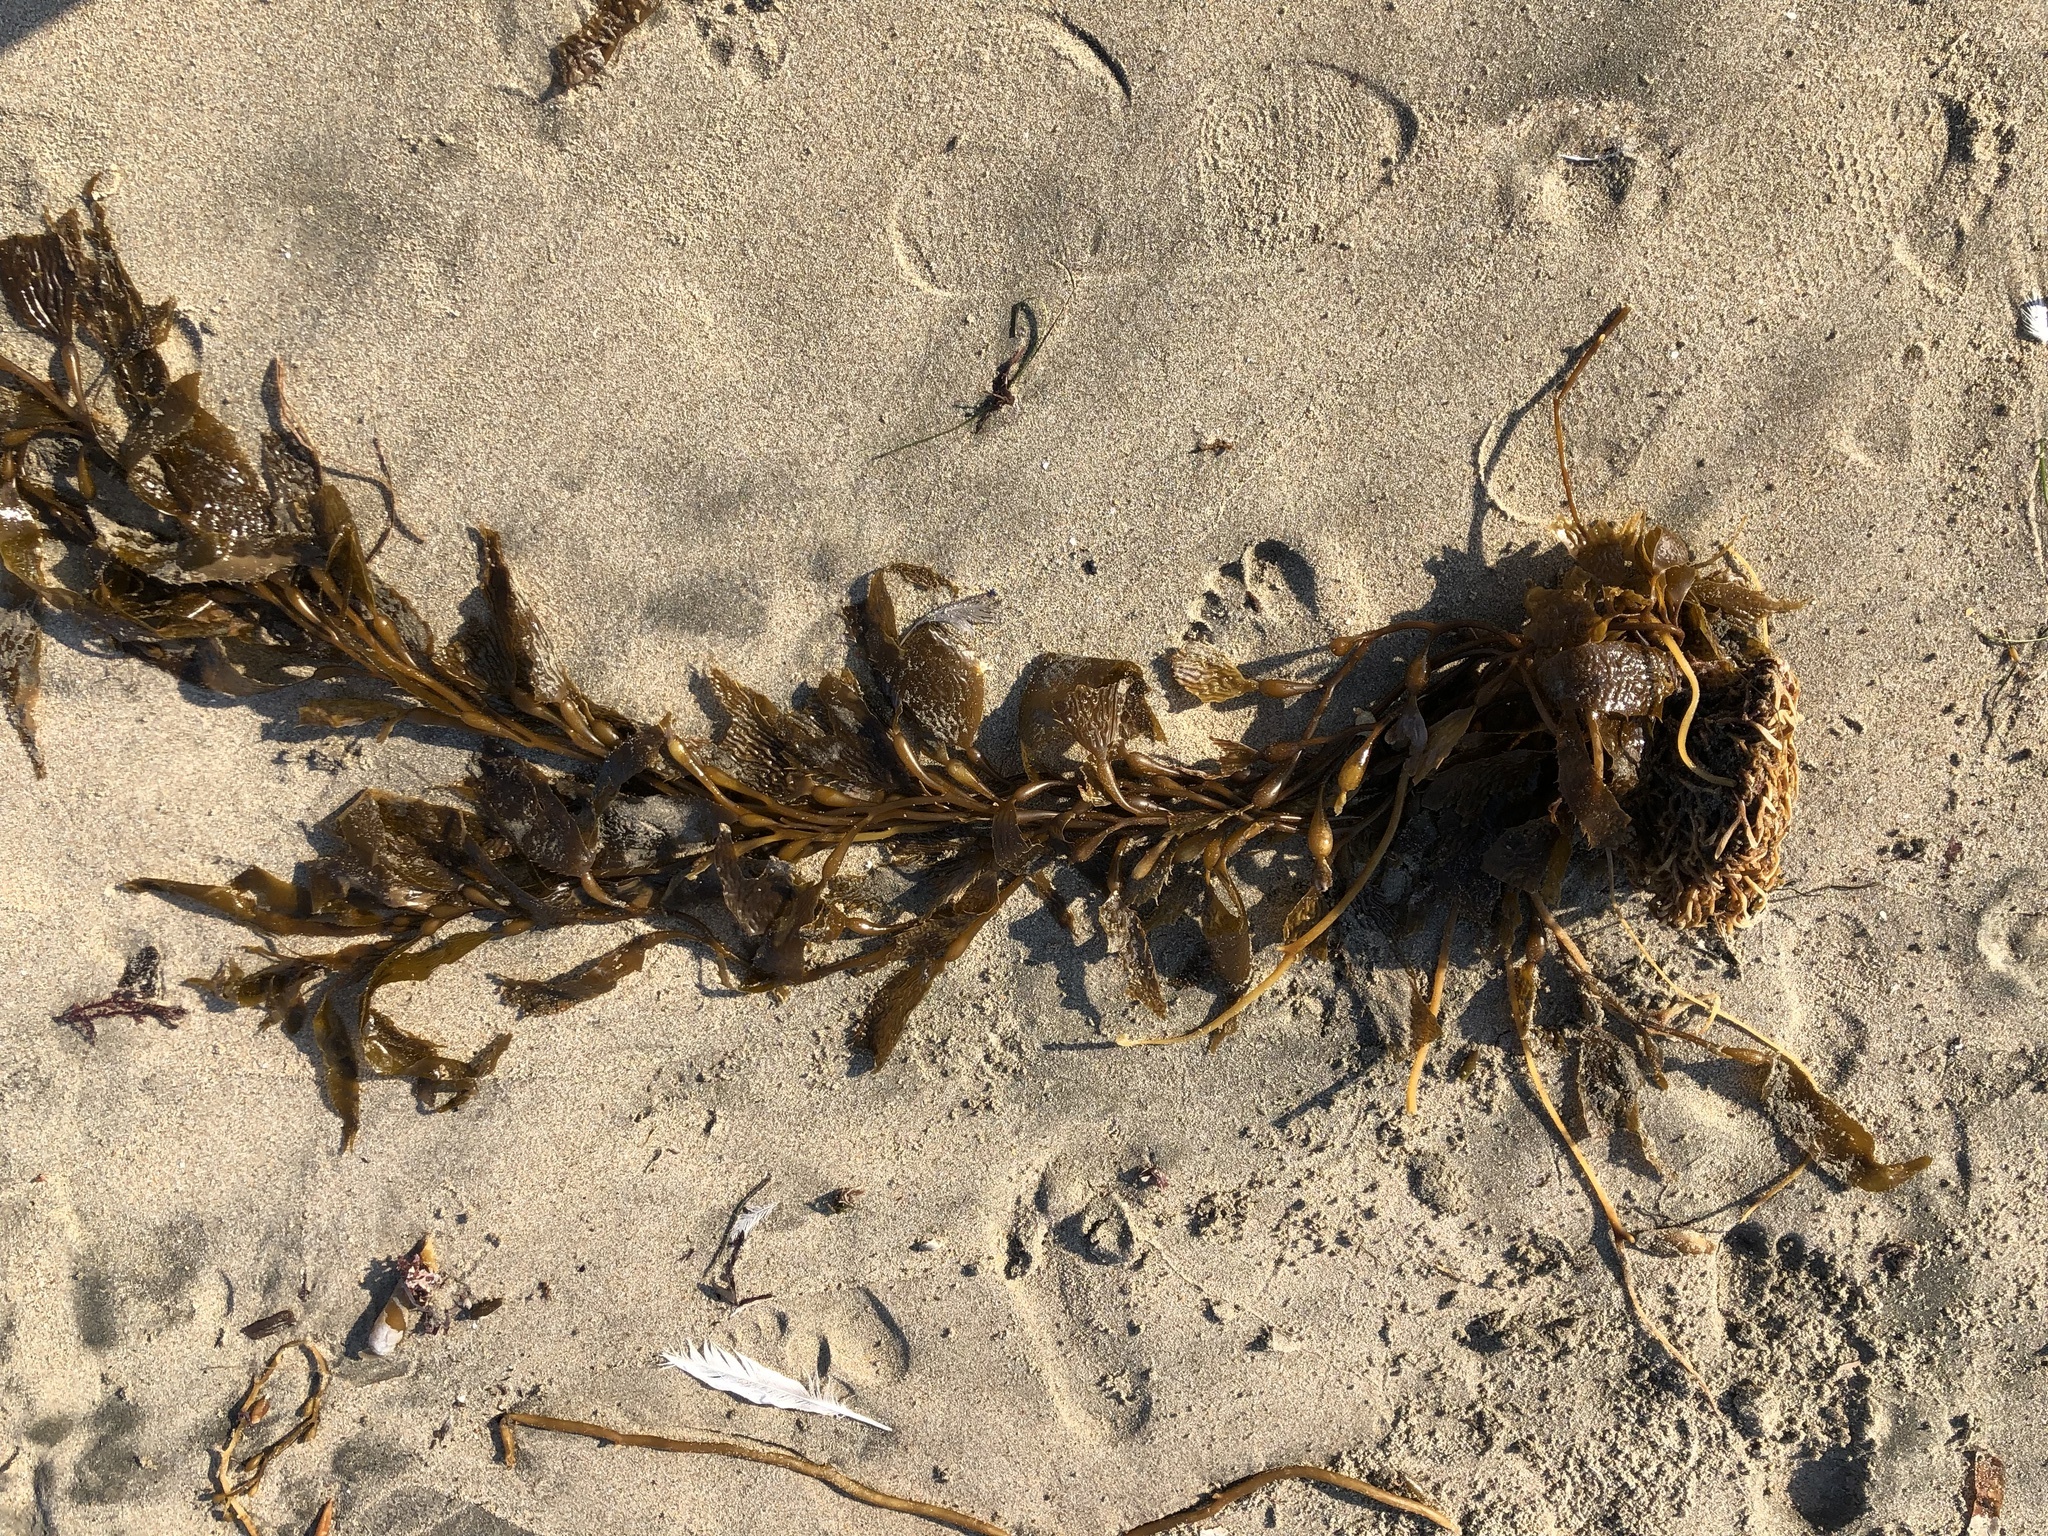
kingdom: Chromista
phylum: Ochrophyta
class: Phaeophyceae
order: Laminariales
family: Laminariaceae
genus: Macrocystis
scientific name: Macrocystis pyrifera
